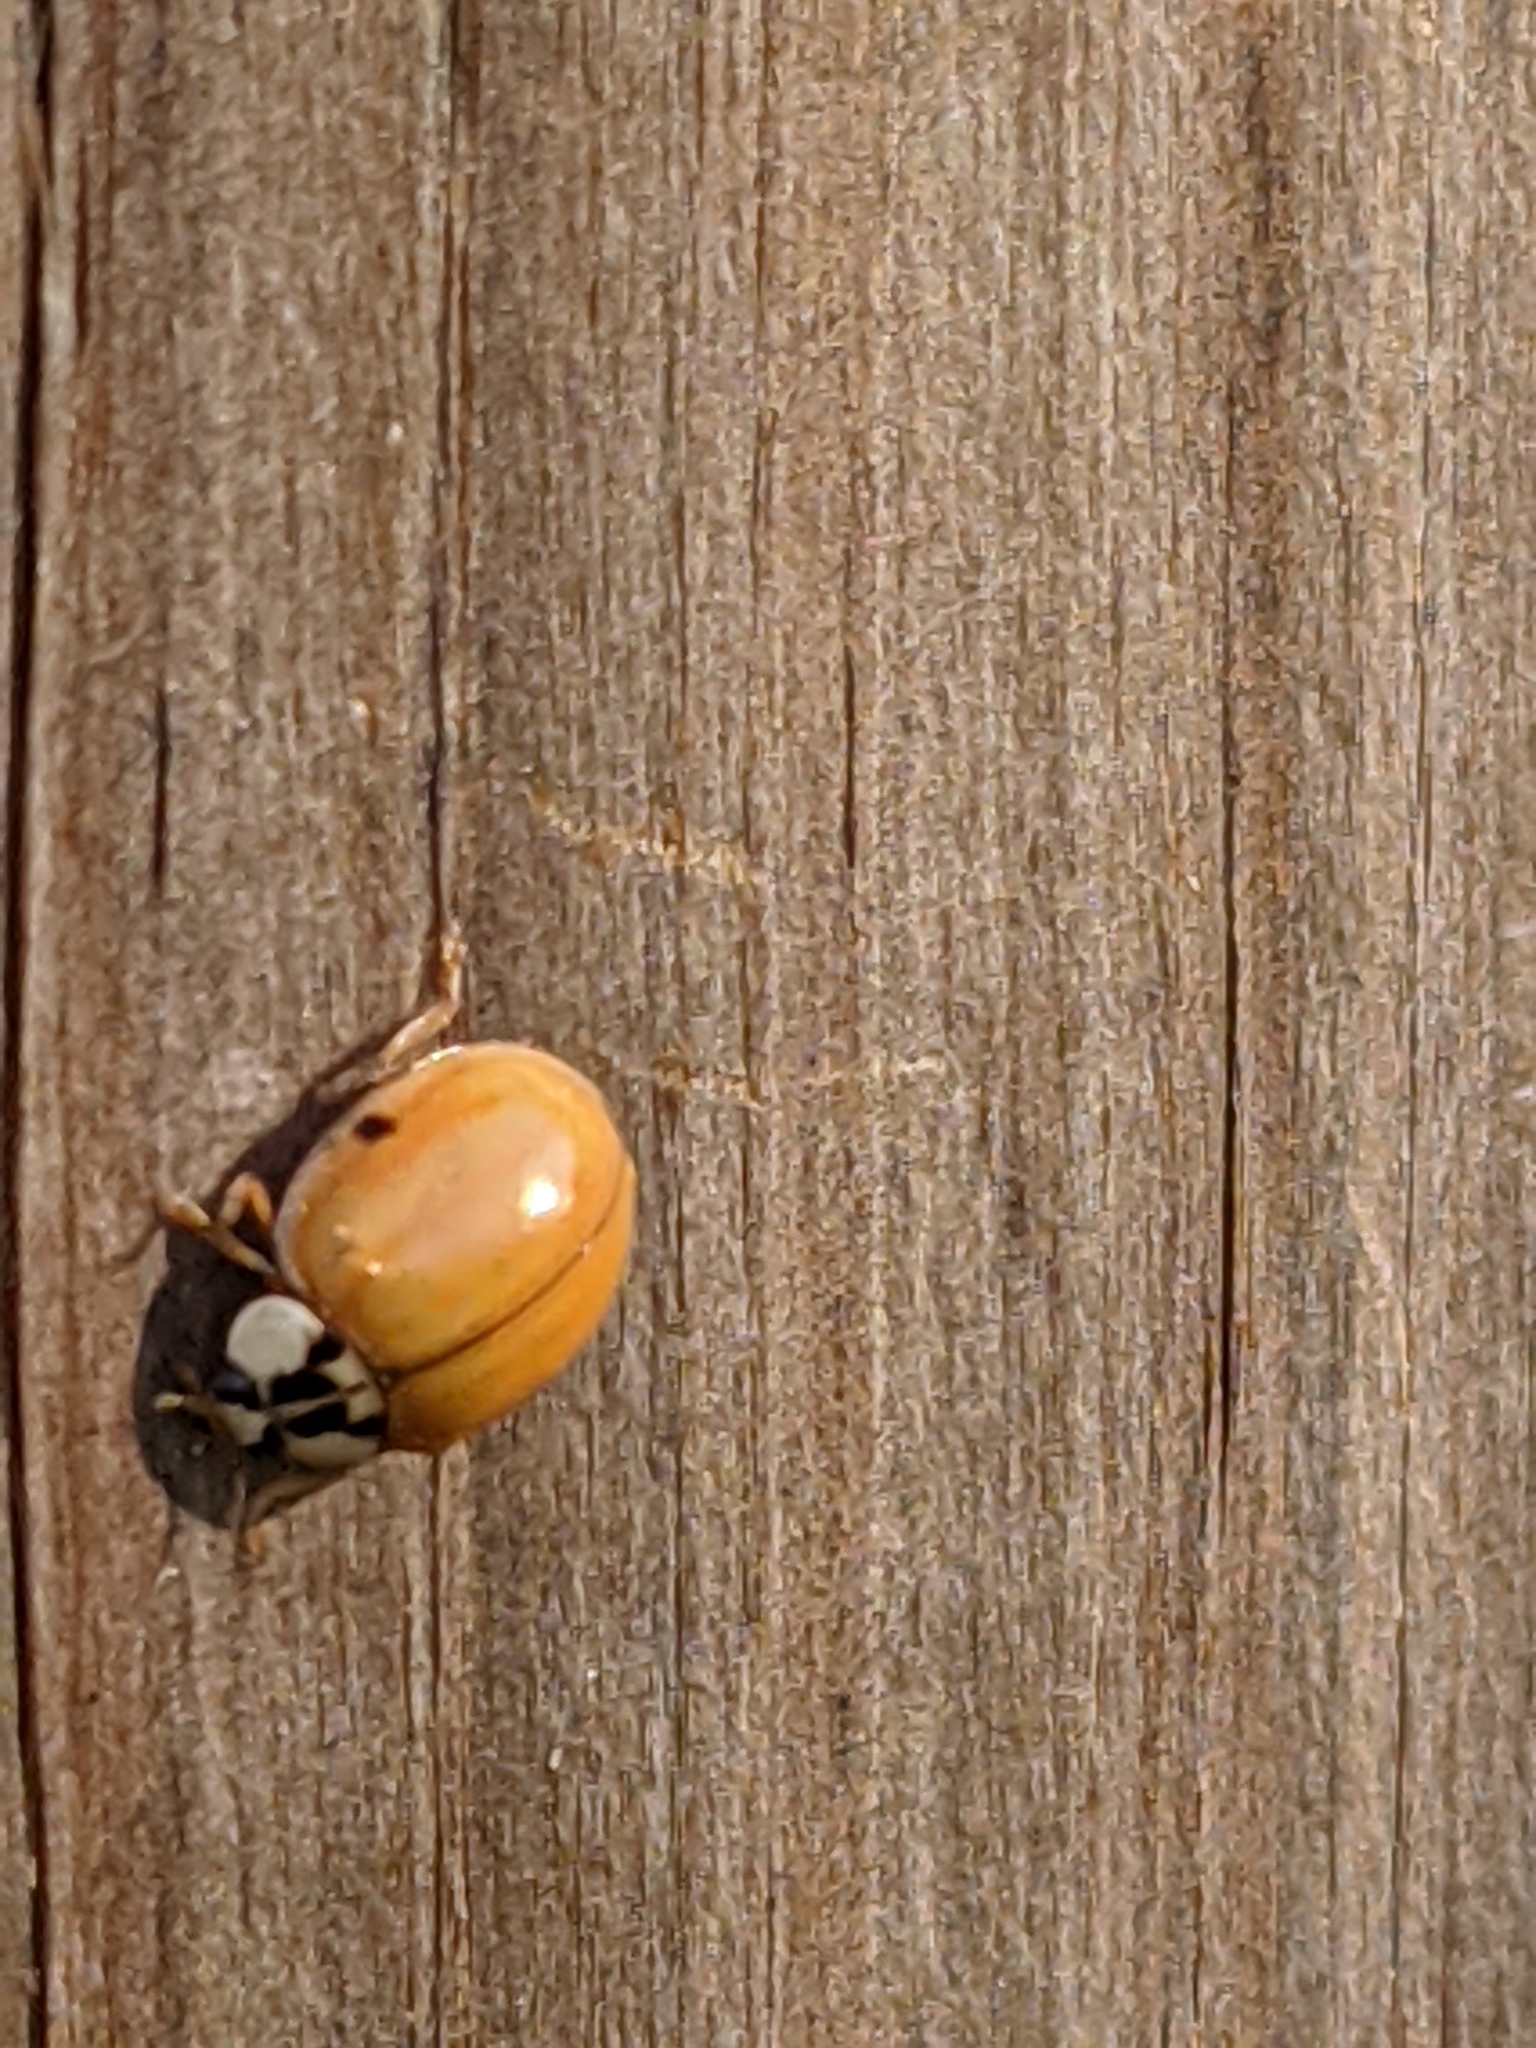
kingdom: Animalia
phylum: Arthropoda
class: Insecta
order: Coleoptera
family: Coccinellidae
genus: Harmonia
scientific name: Harmonia axyridis
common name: Harlequin ladybird
